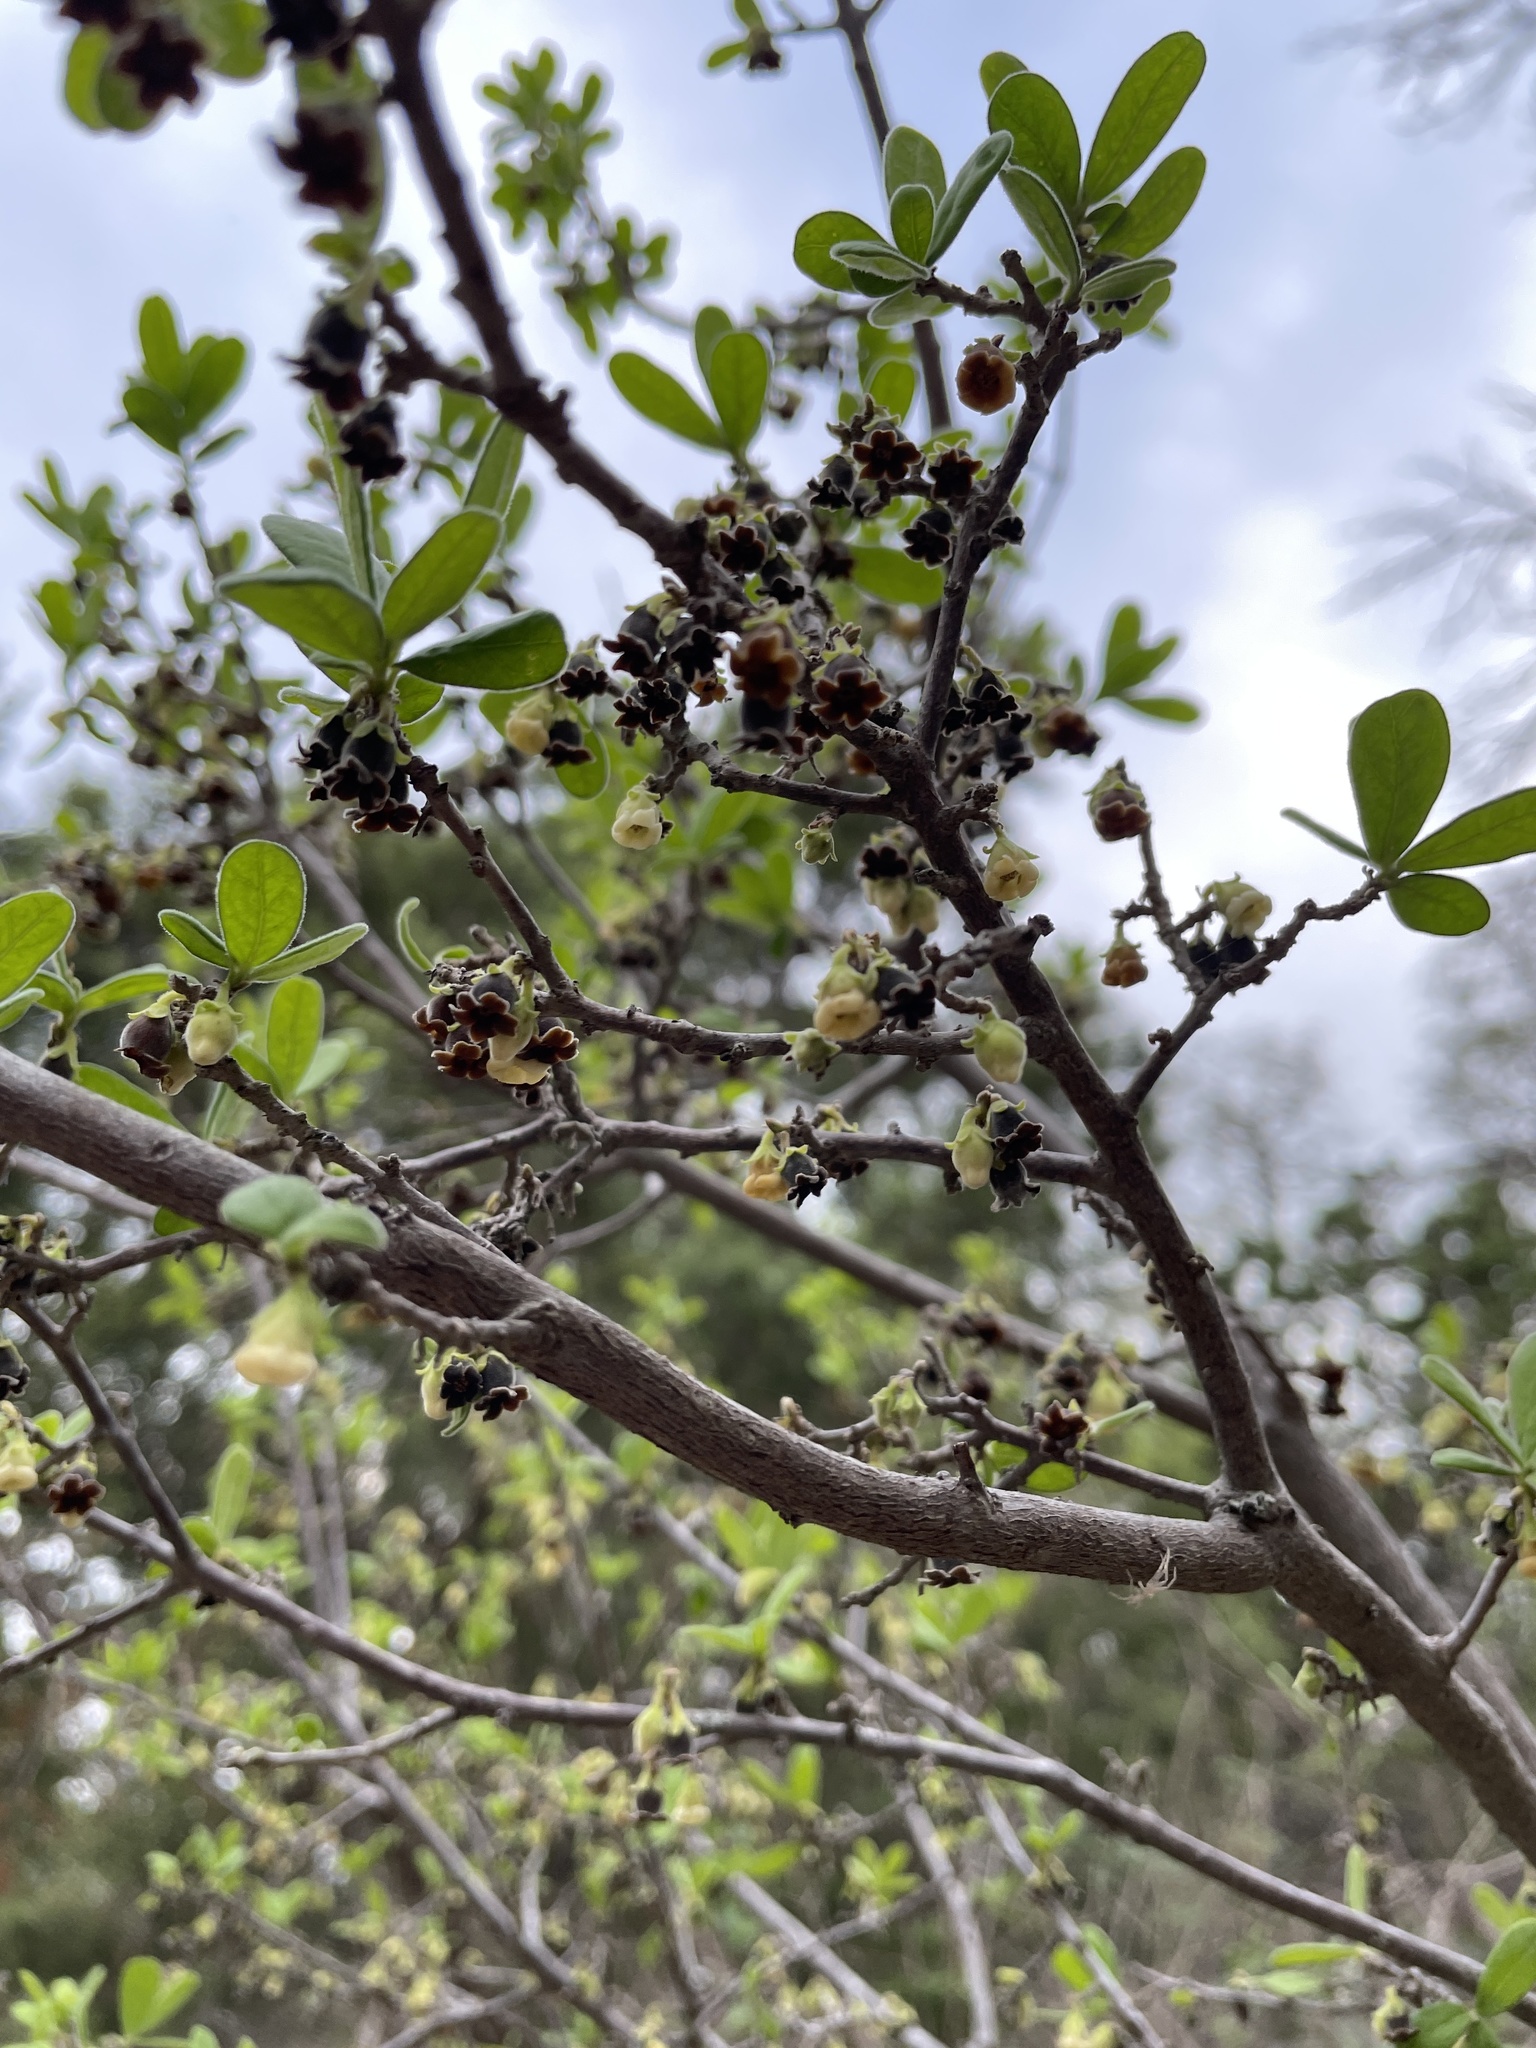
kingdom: Plantae
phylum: Tracheophyta
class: Magnoliopsida
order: Ericales
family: Ebenaceae
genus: Diospyros
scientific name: Diospyros texana
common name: Texas persimmon
